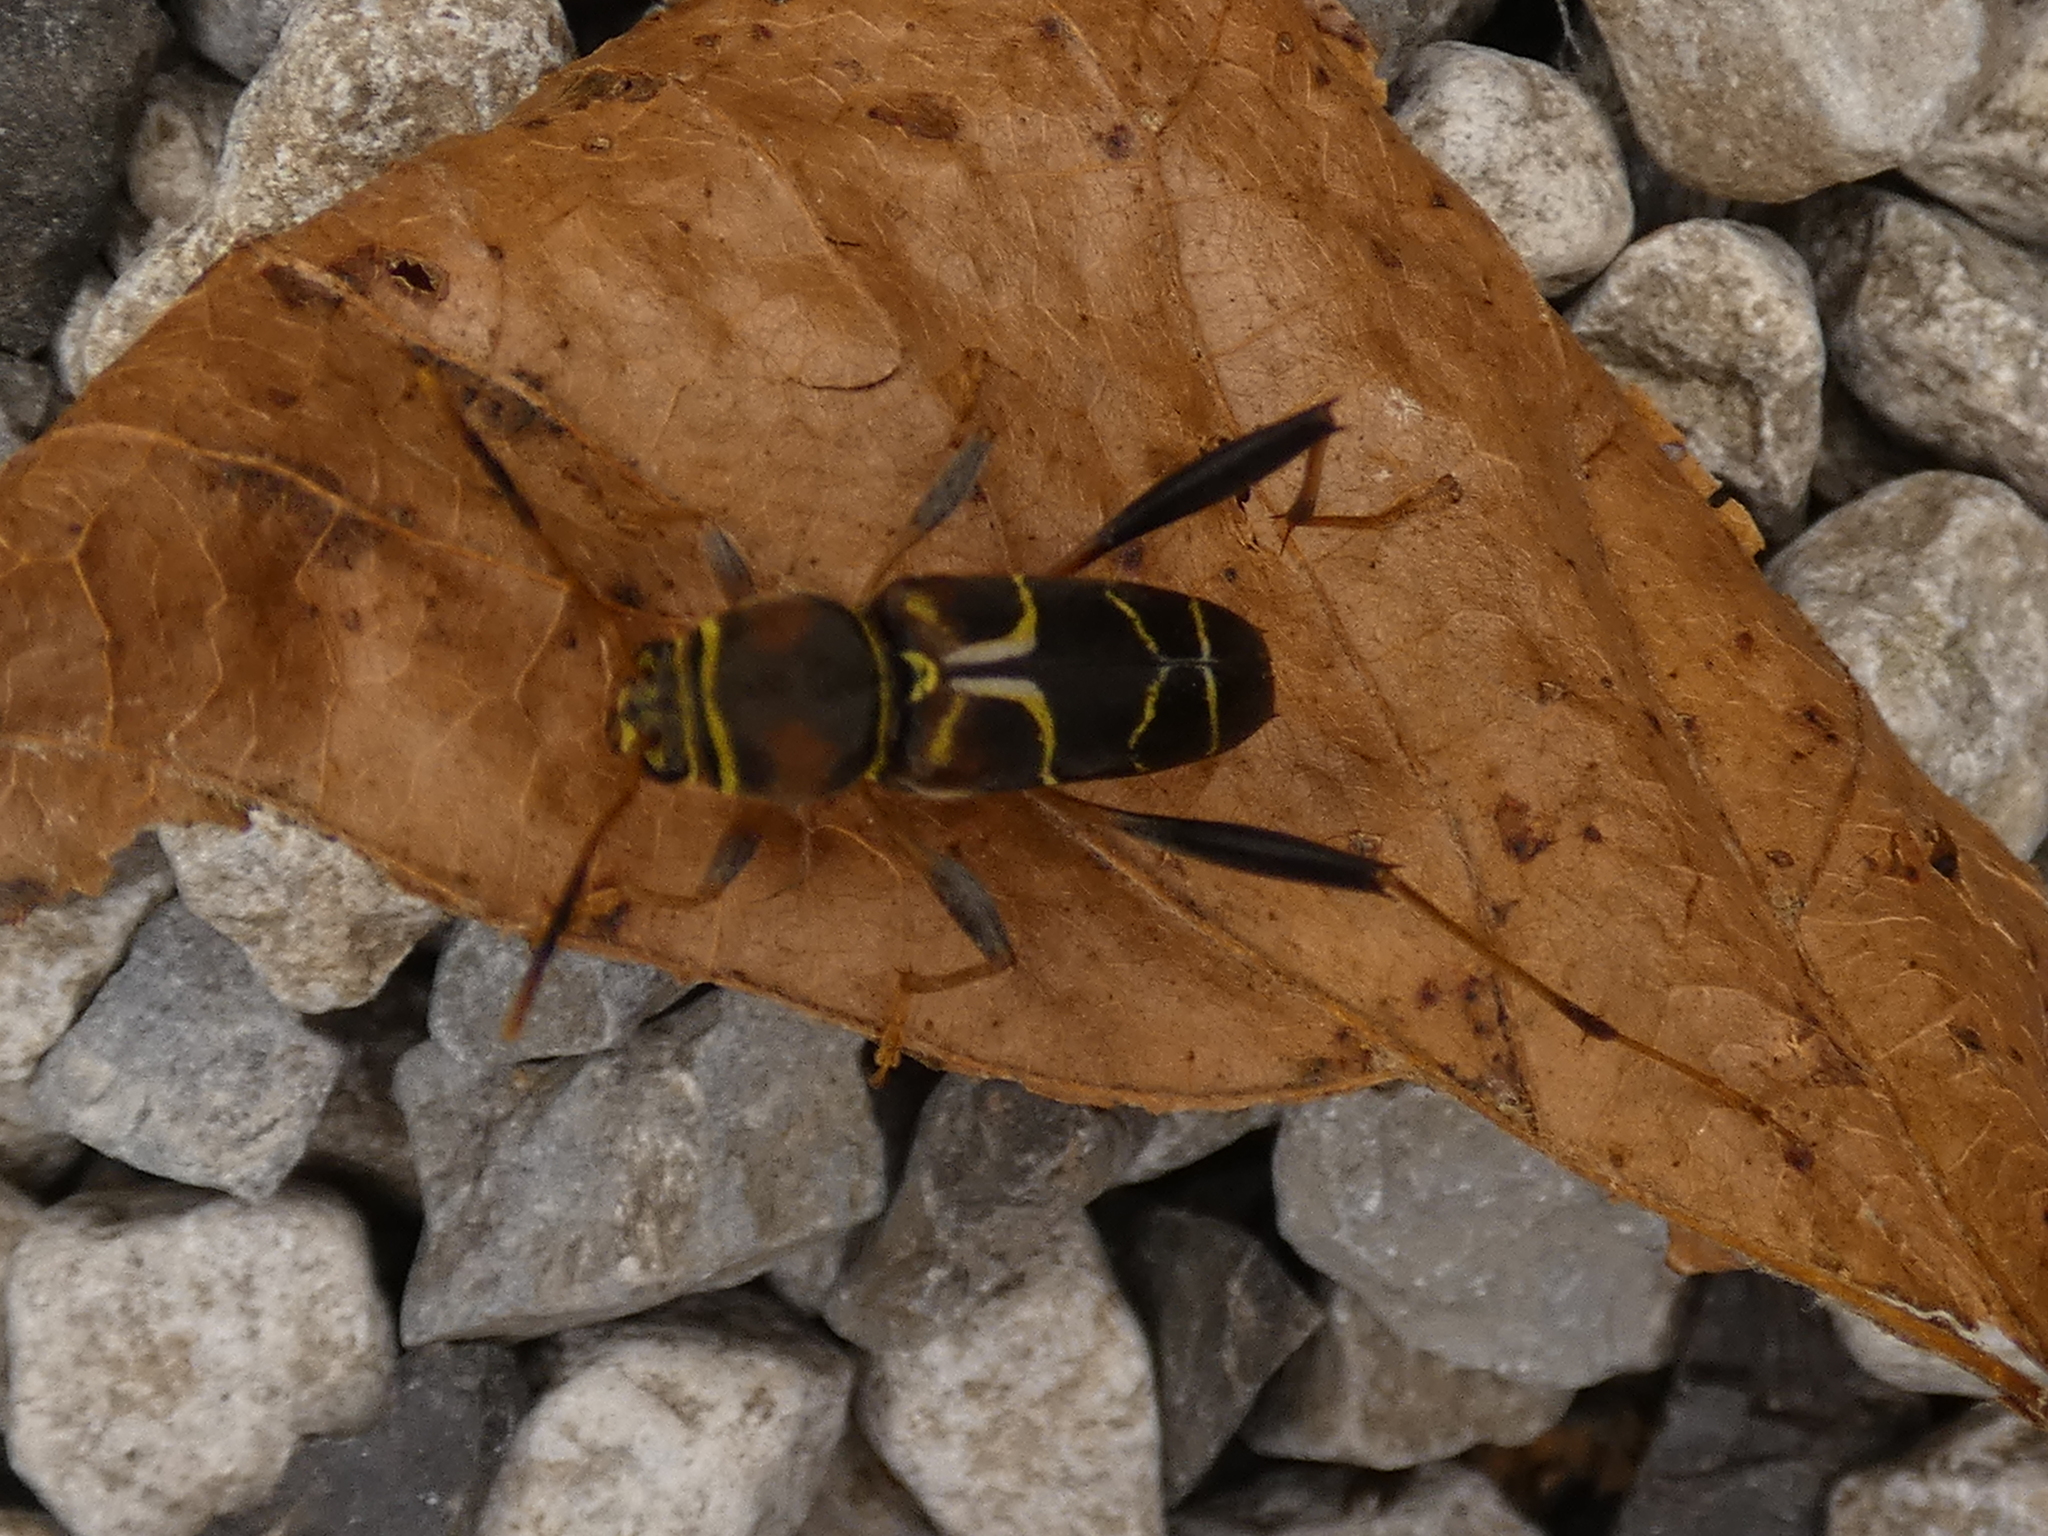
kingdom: Animalia
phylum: Arthropoda
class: Insecta
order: Coleoptera
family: Cerambycidae
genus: Neoclytus
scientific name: Neoclytus mucronatus
